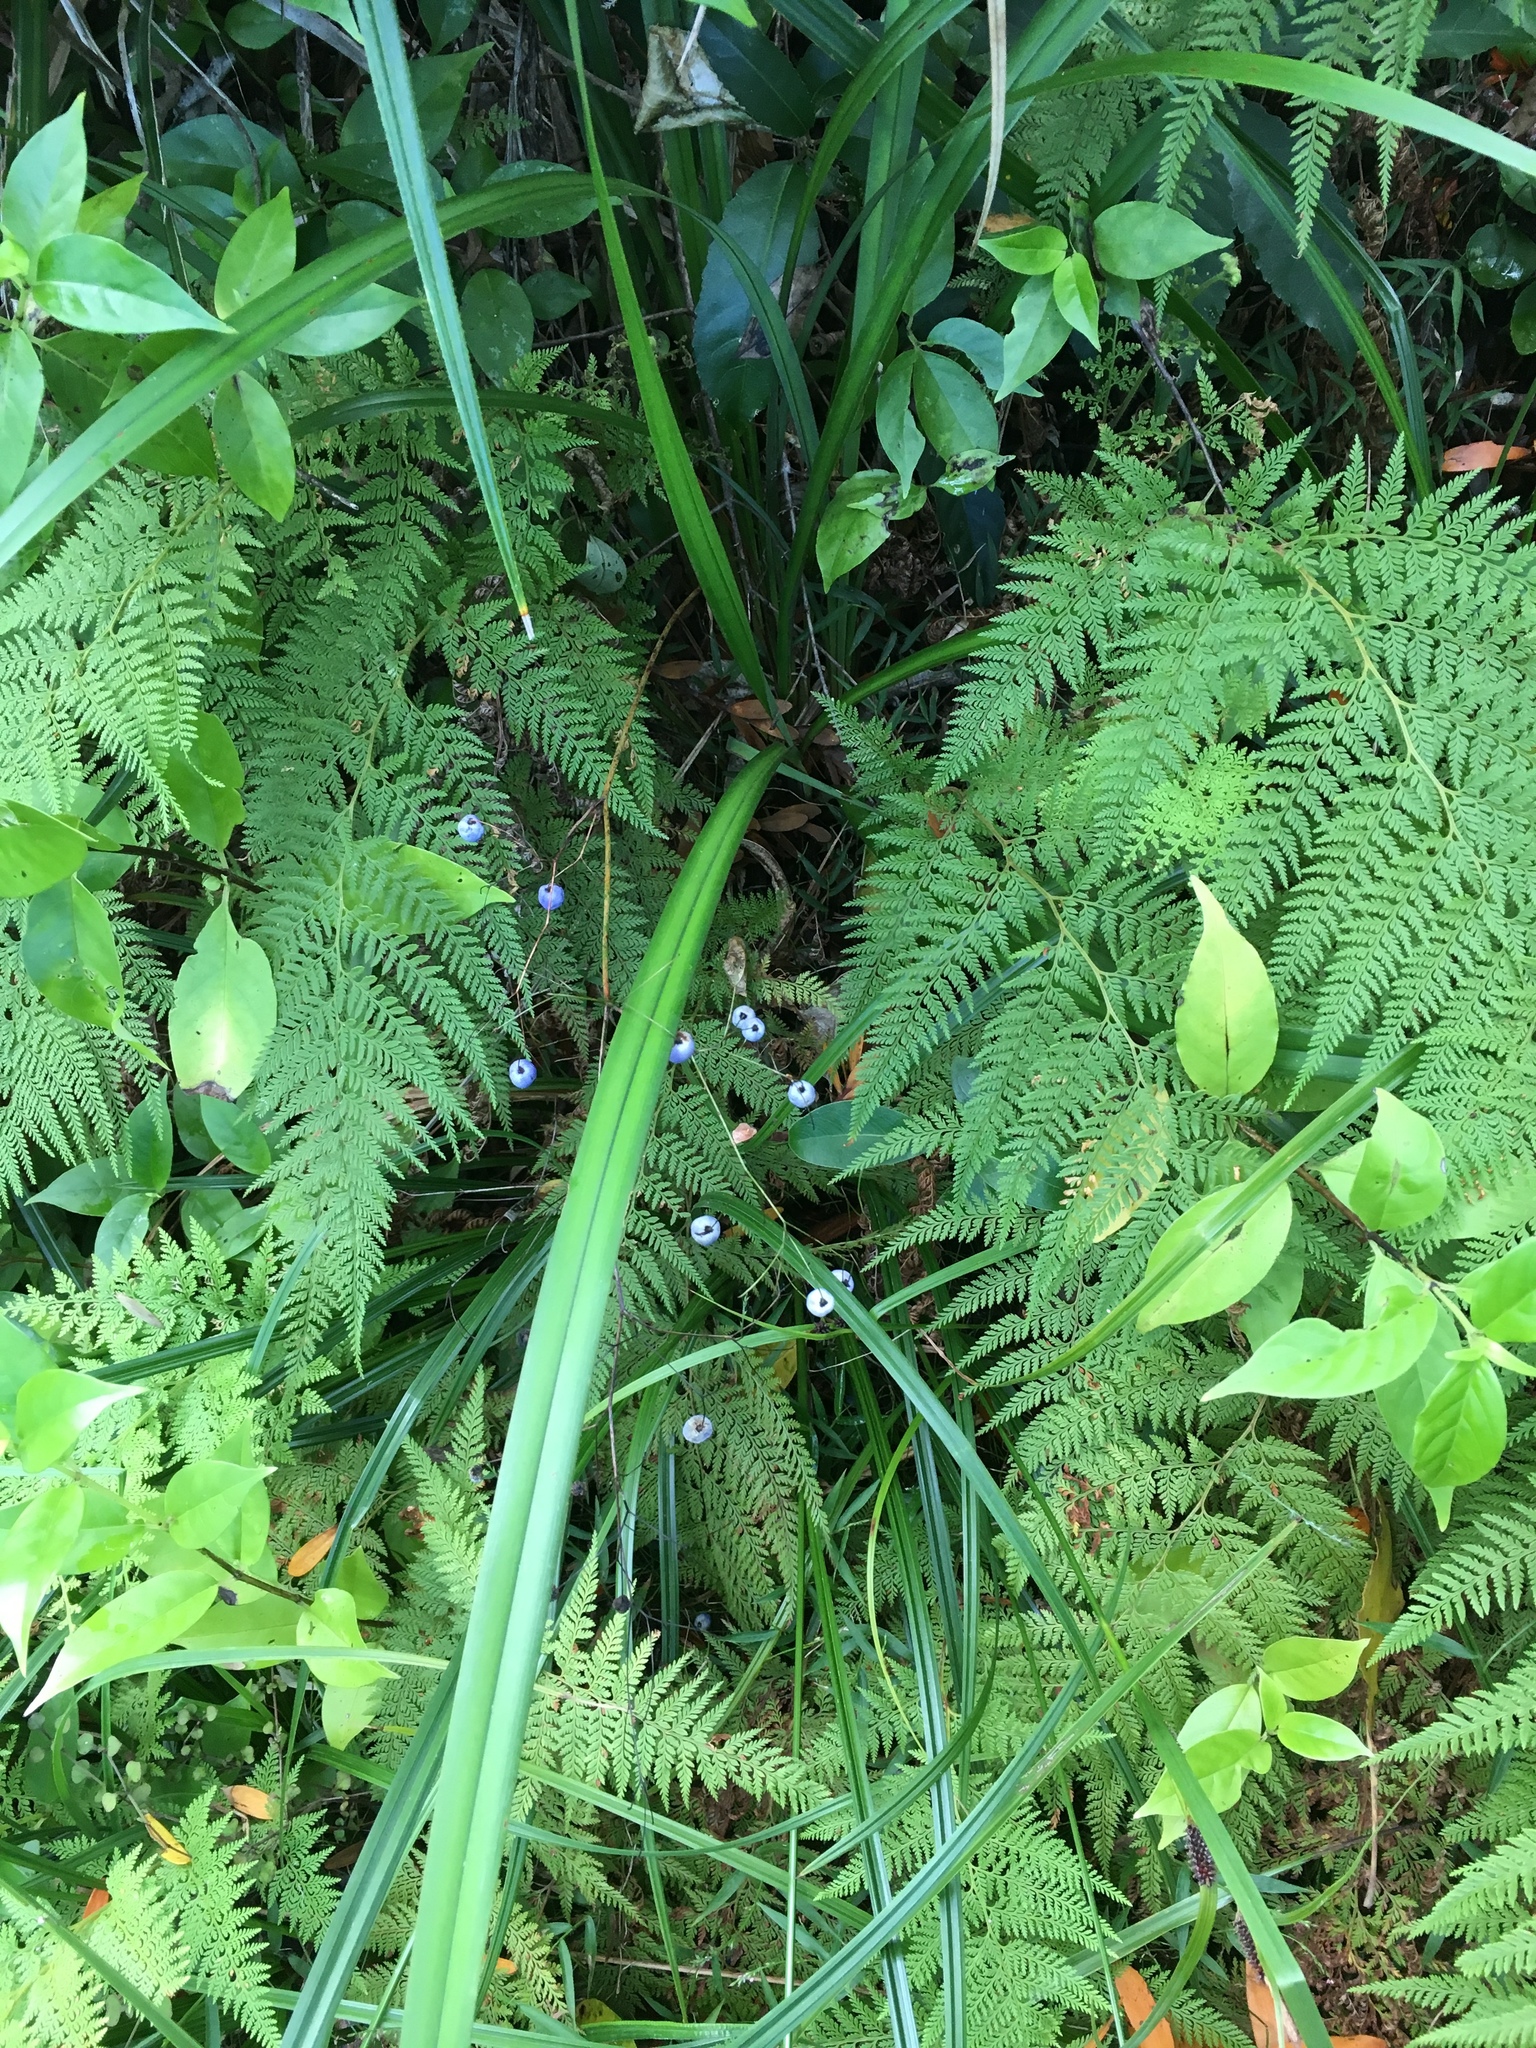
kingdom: Plantae
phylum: Tracheophyta
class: Liliopsida
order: Asparagales
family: Asphodelaceae
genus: Dianella
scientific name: Dianella nigra
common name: New zealand-blueberry
